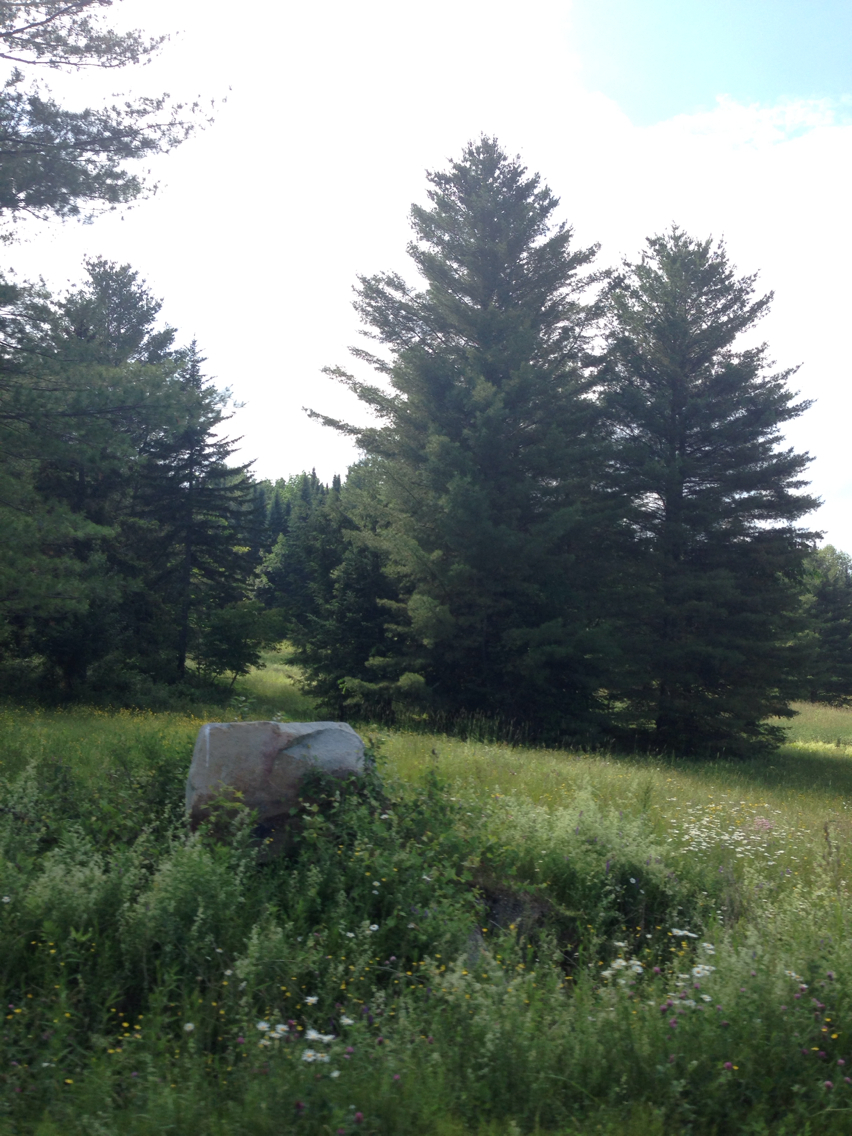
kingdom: Plantae
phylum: Tracheophyta
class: Pinopsida
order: Pinales
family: Pinaceae
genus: Pinus
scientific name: Pinus strobus
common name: Weymouth pine
